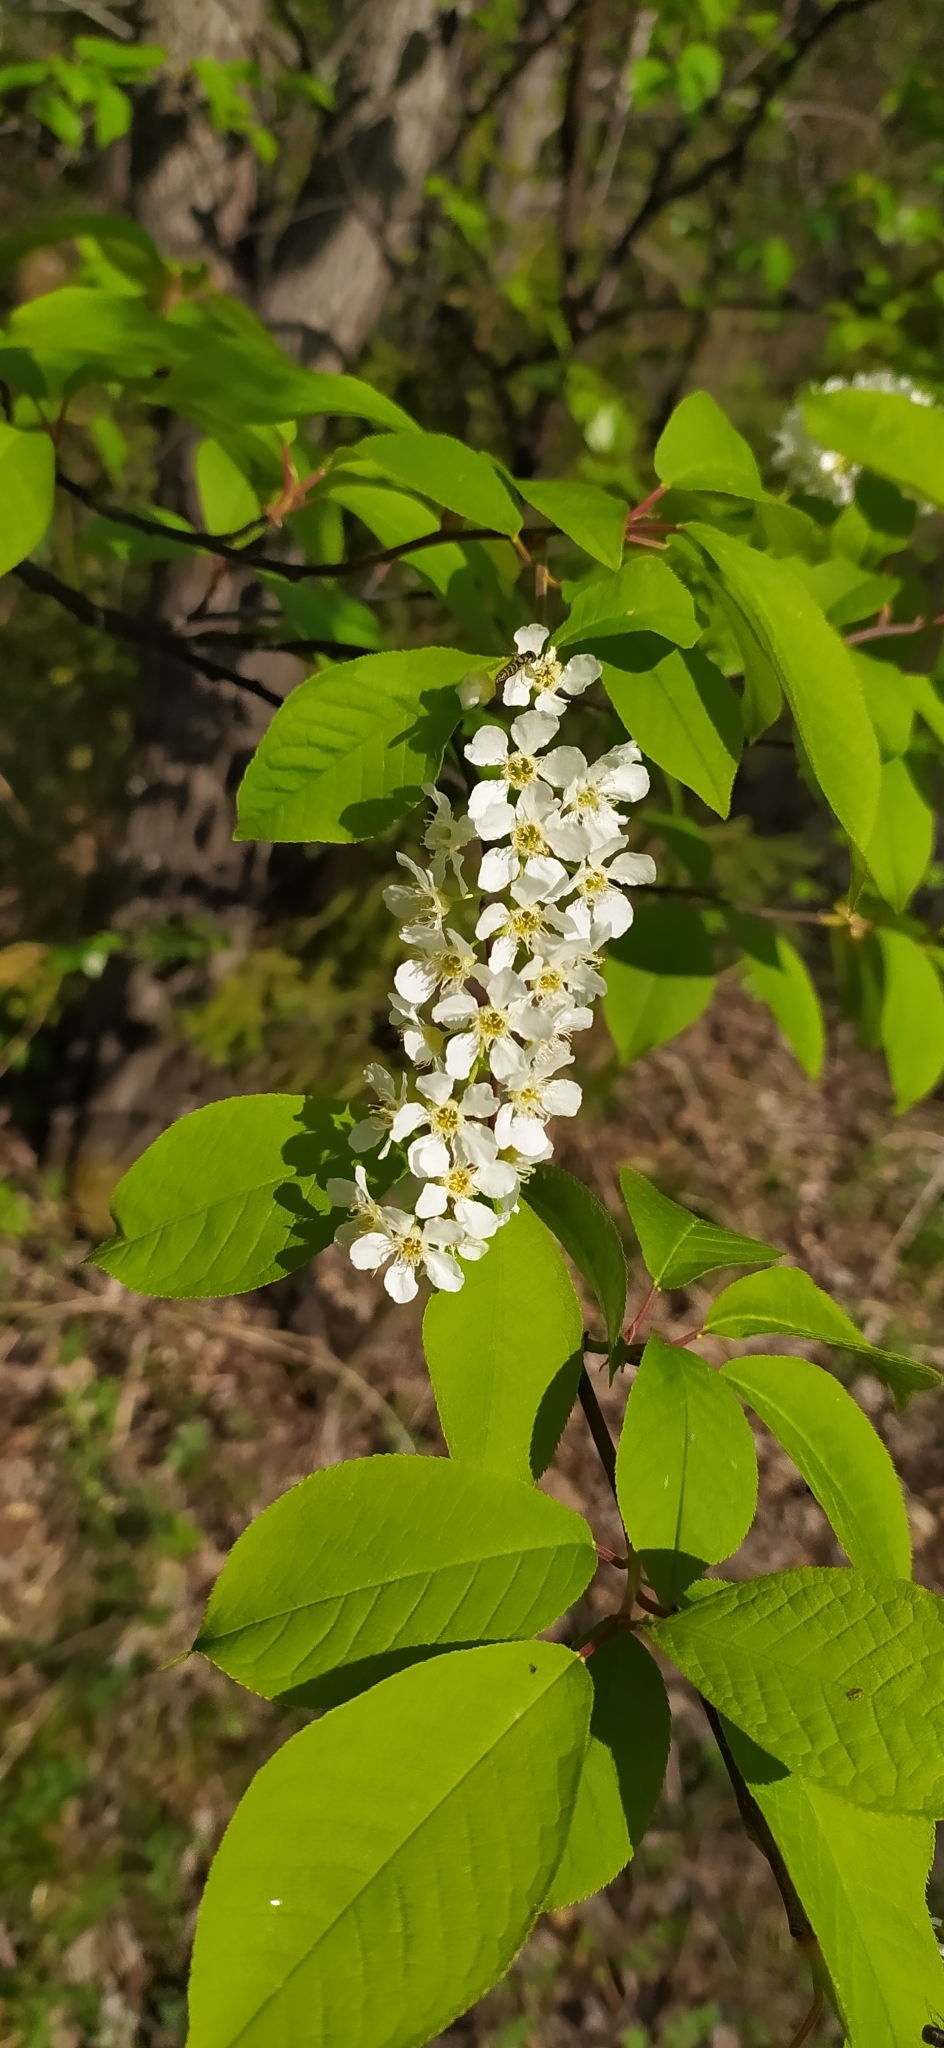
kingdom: Plantae
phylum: Tracheophyta
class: Magnoliopsida
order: Rosales
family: Rosaceae
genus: Prunus
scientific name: Prunus padus
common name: Bird cherry
